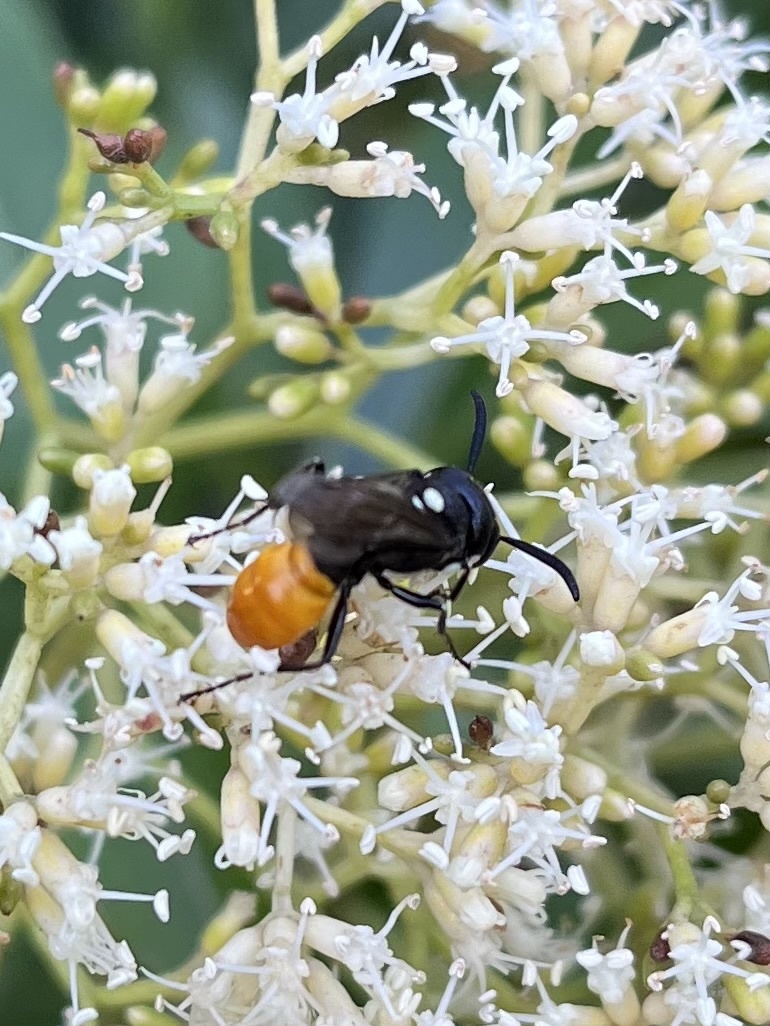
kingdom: Animalia
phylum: Arthropoda
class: Insecta
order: Hymenoptera
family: Crabronidae
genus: Philanthus
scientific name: Philanthus loeflingi
